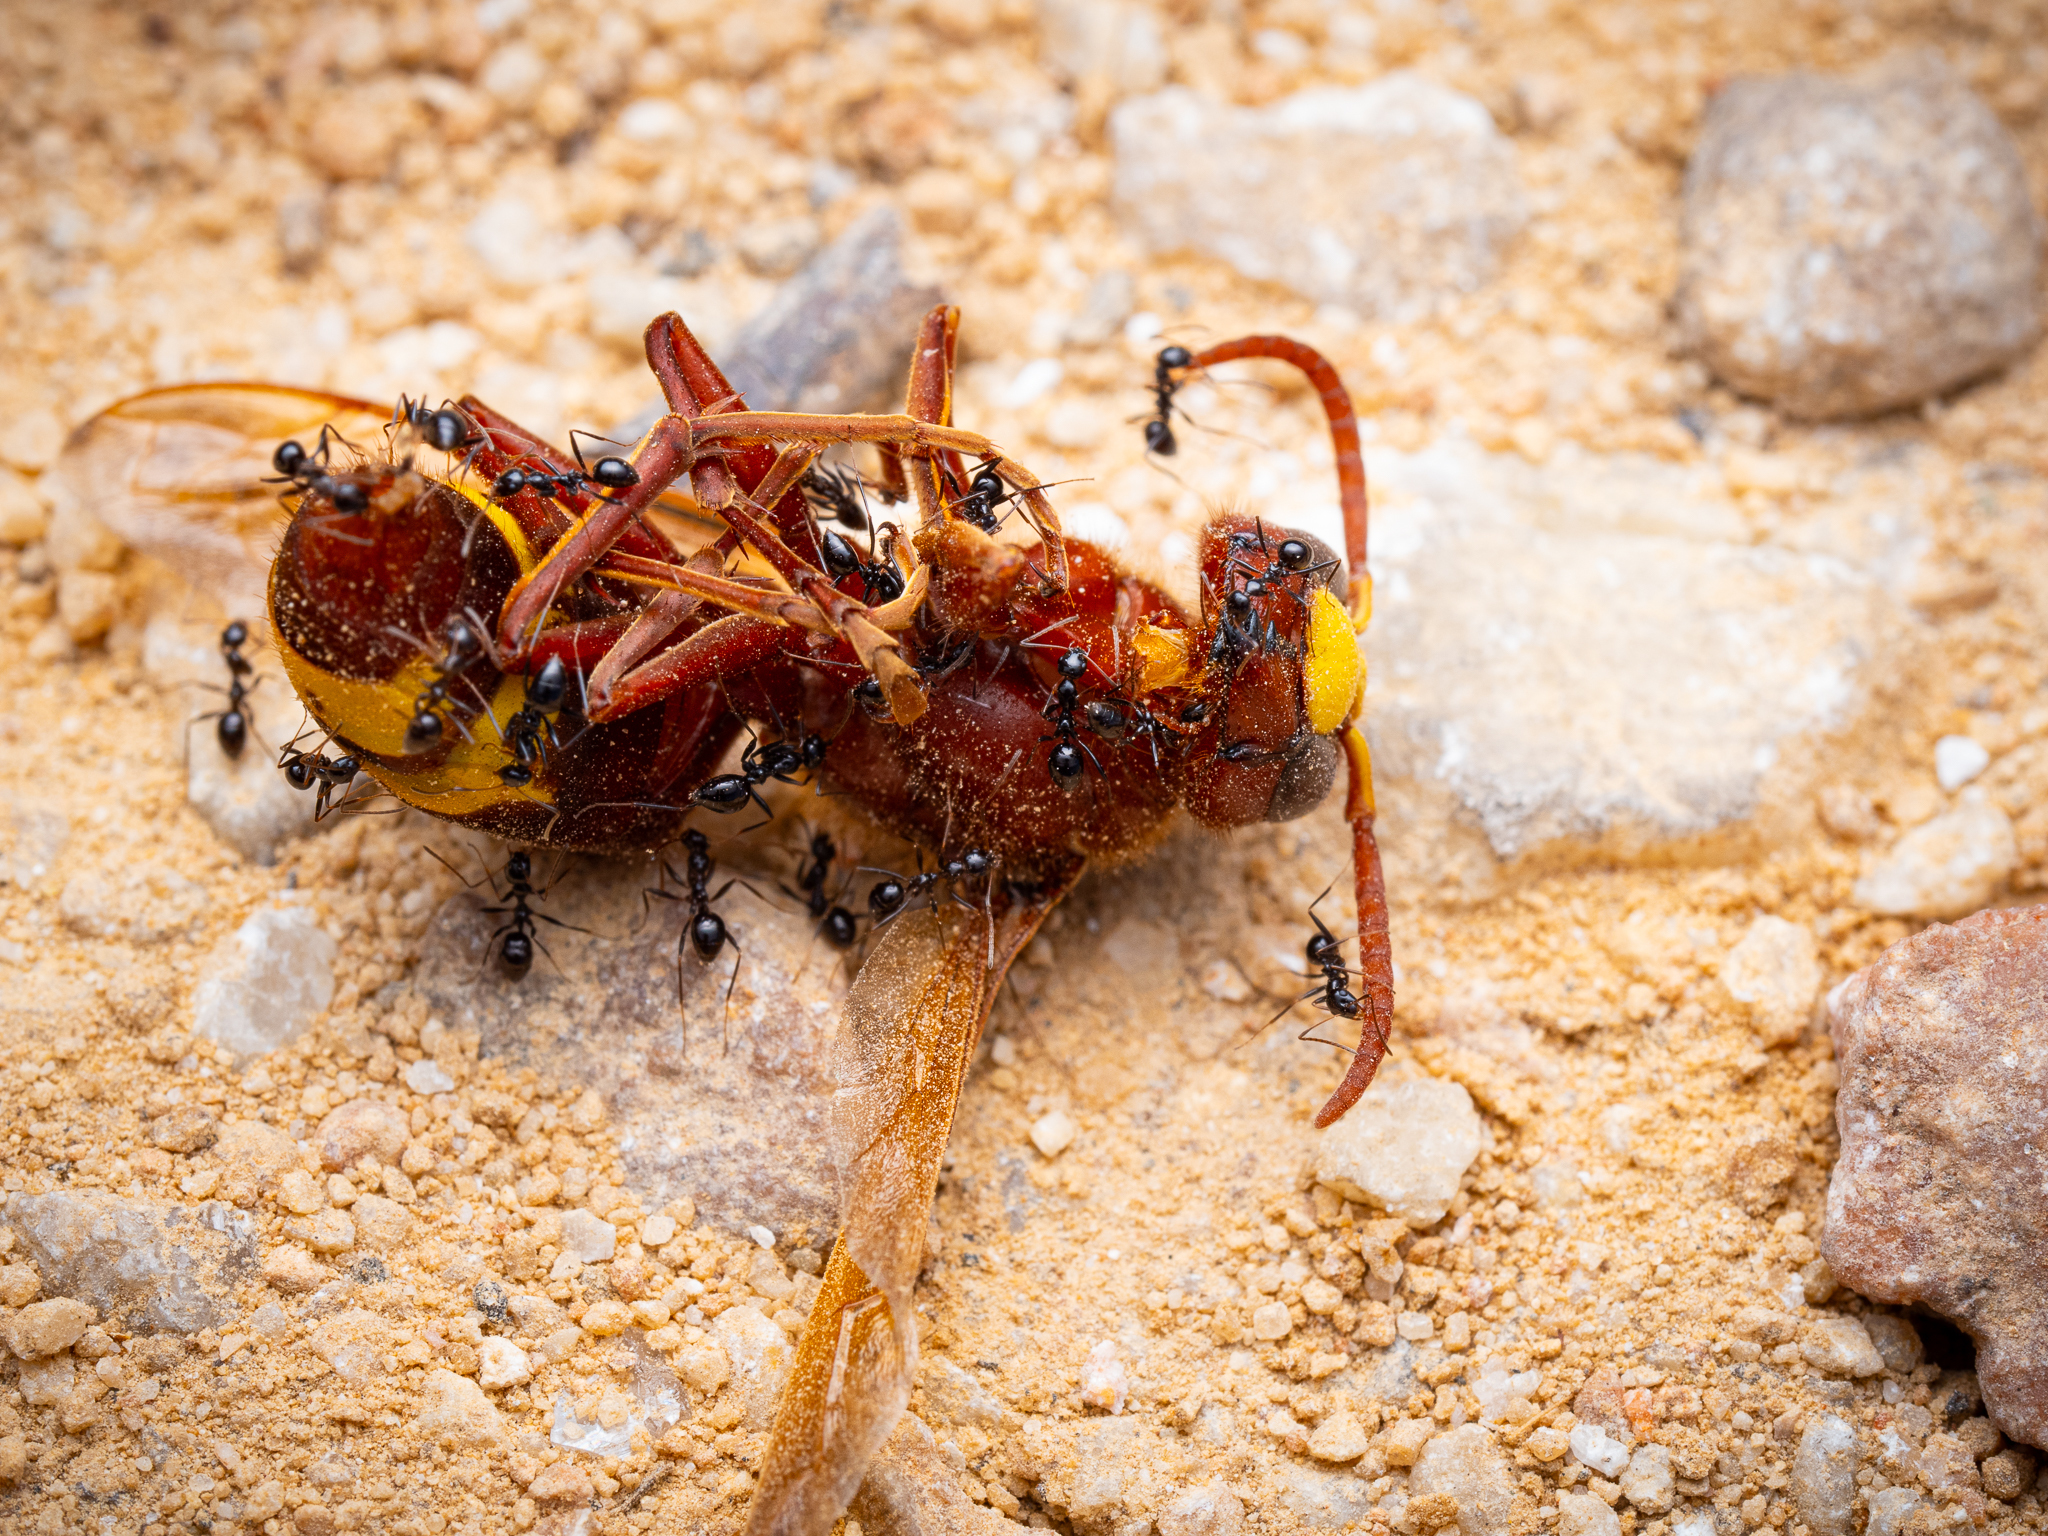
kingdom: Animalia
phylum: Arthropoda
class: Insecta
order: Hymenoptera
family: Vespidae
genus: Vespa
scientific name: Vespa orientalis
